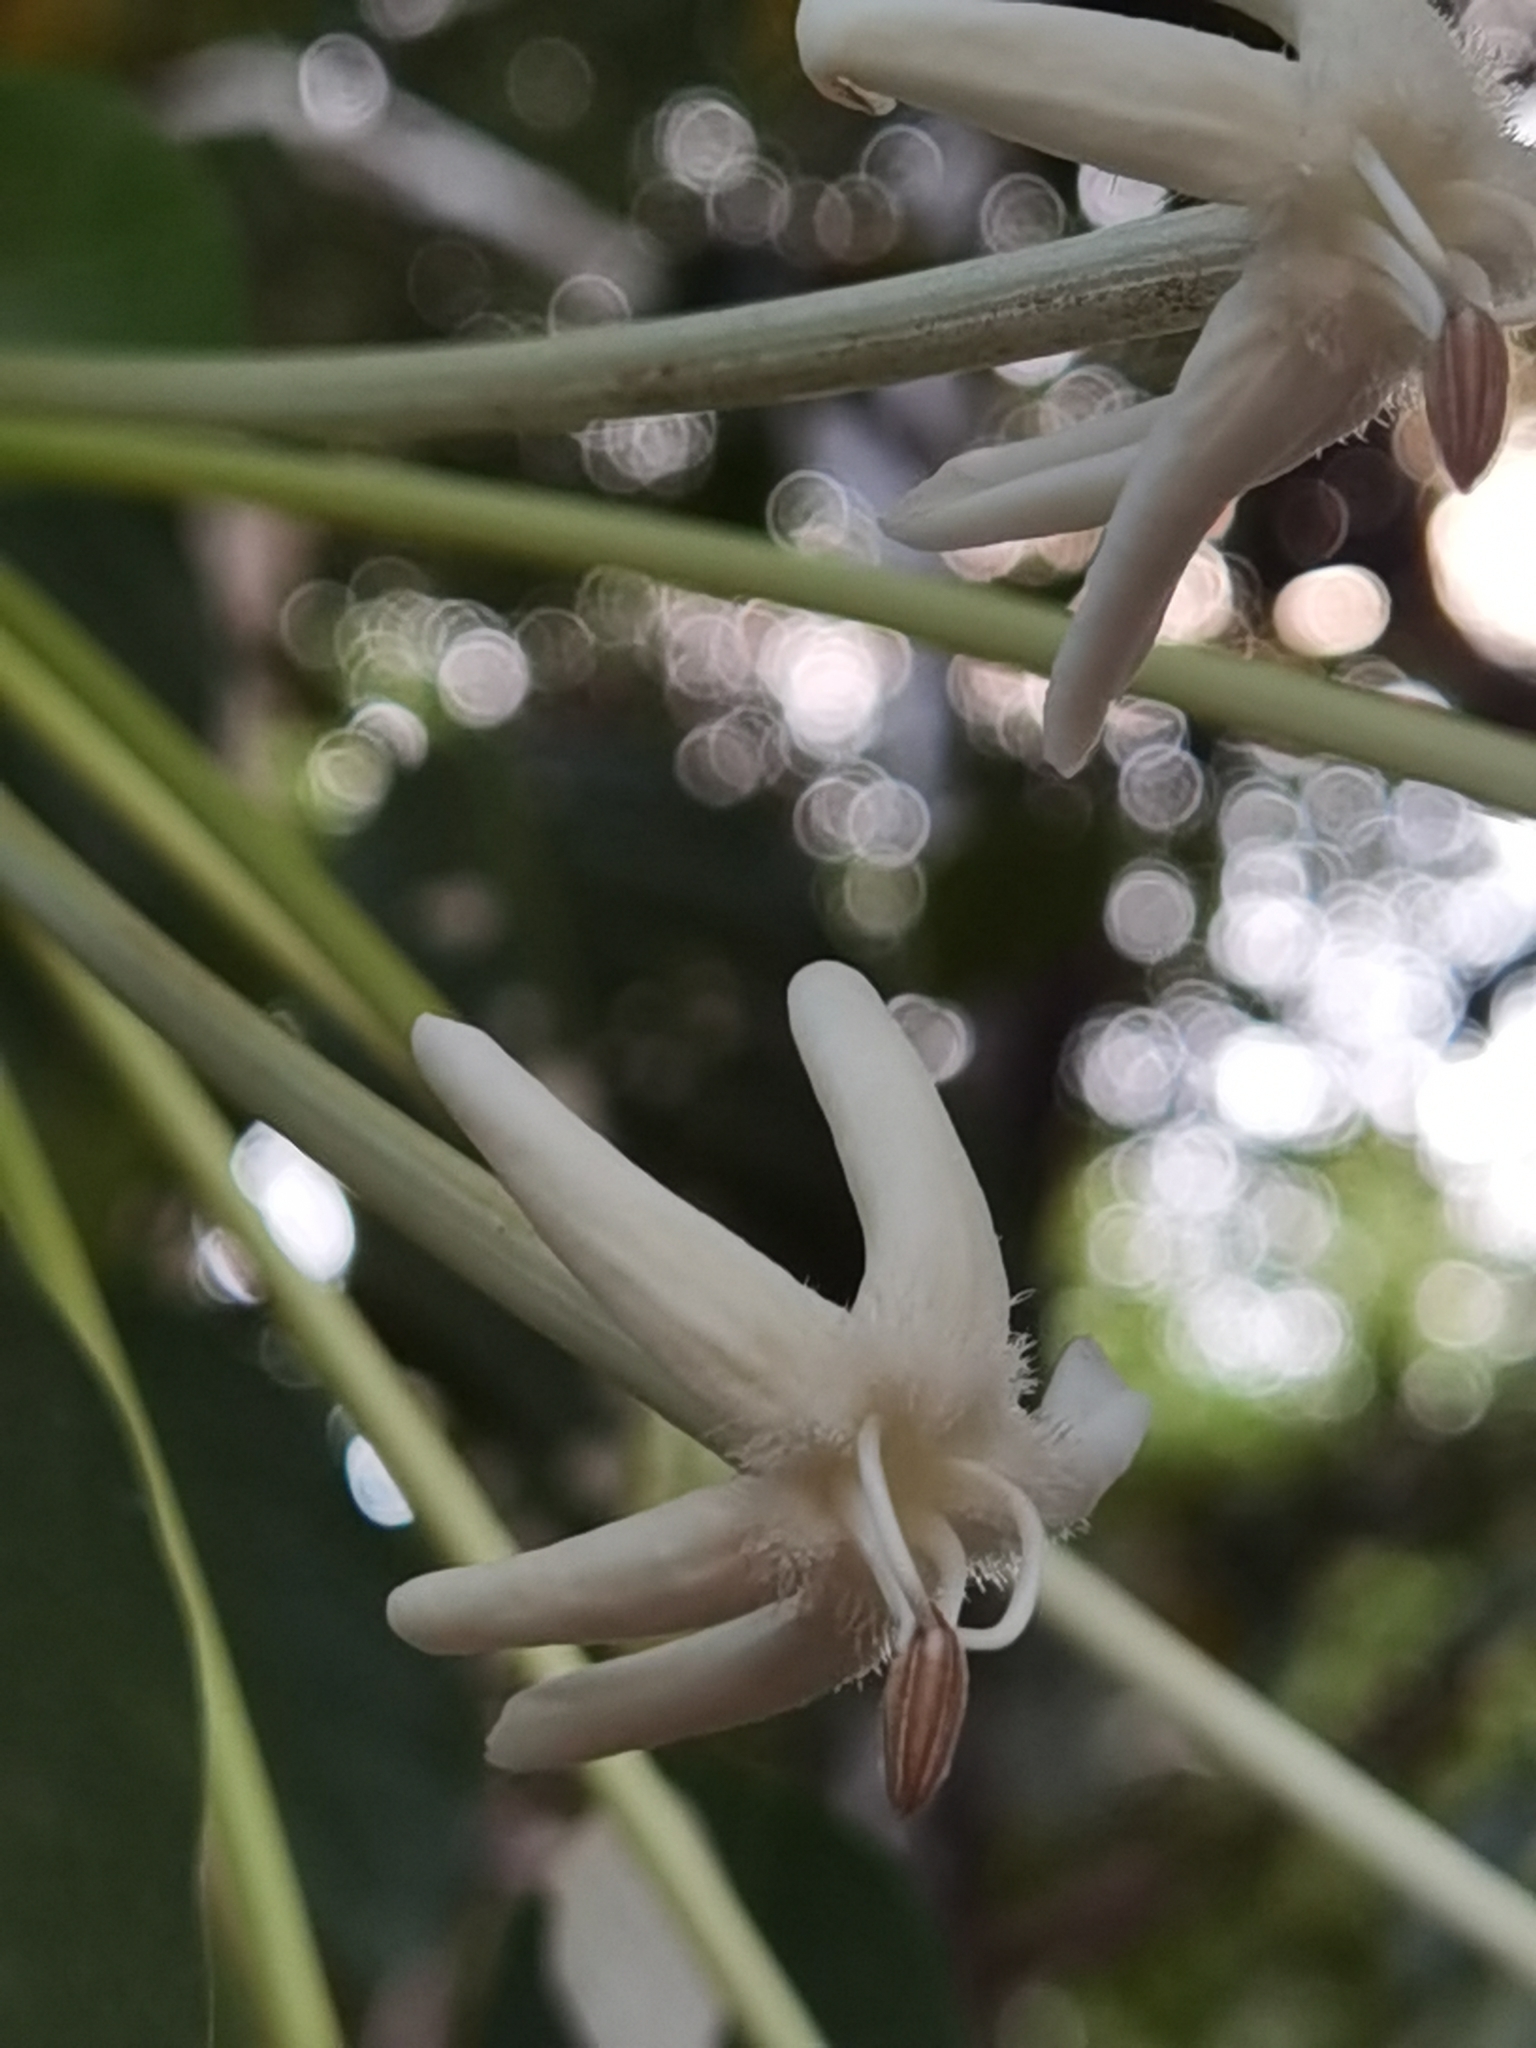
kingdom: Plantae
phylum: Tracheophyta
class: Magnoliopsida
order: Gentianales
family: Rubiaceae
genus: Posoqueria
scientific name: Posoqueria latifolia
